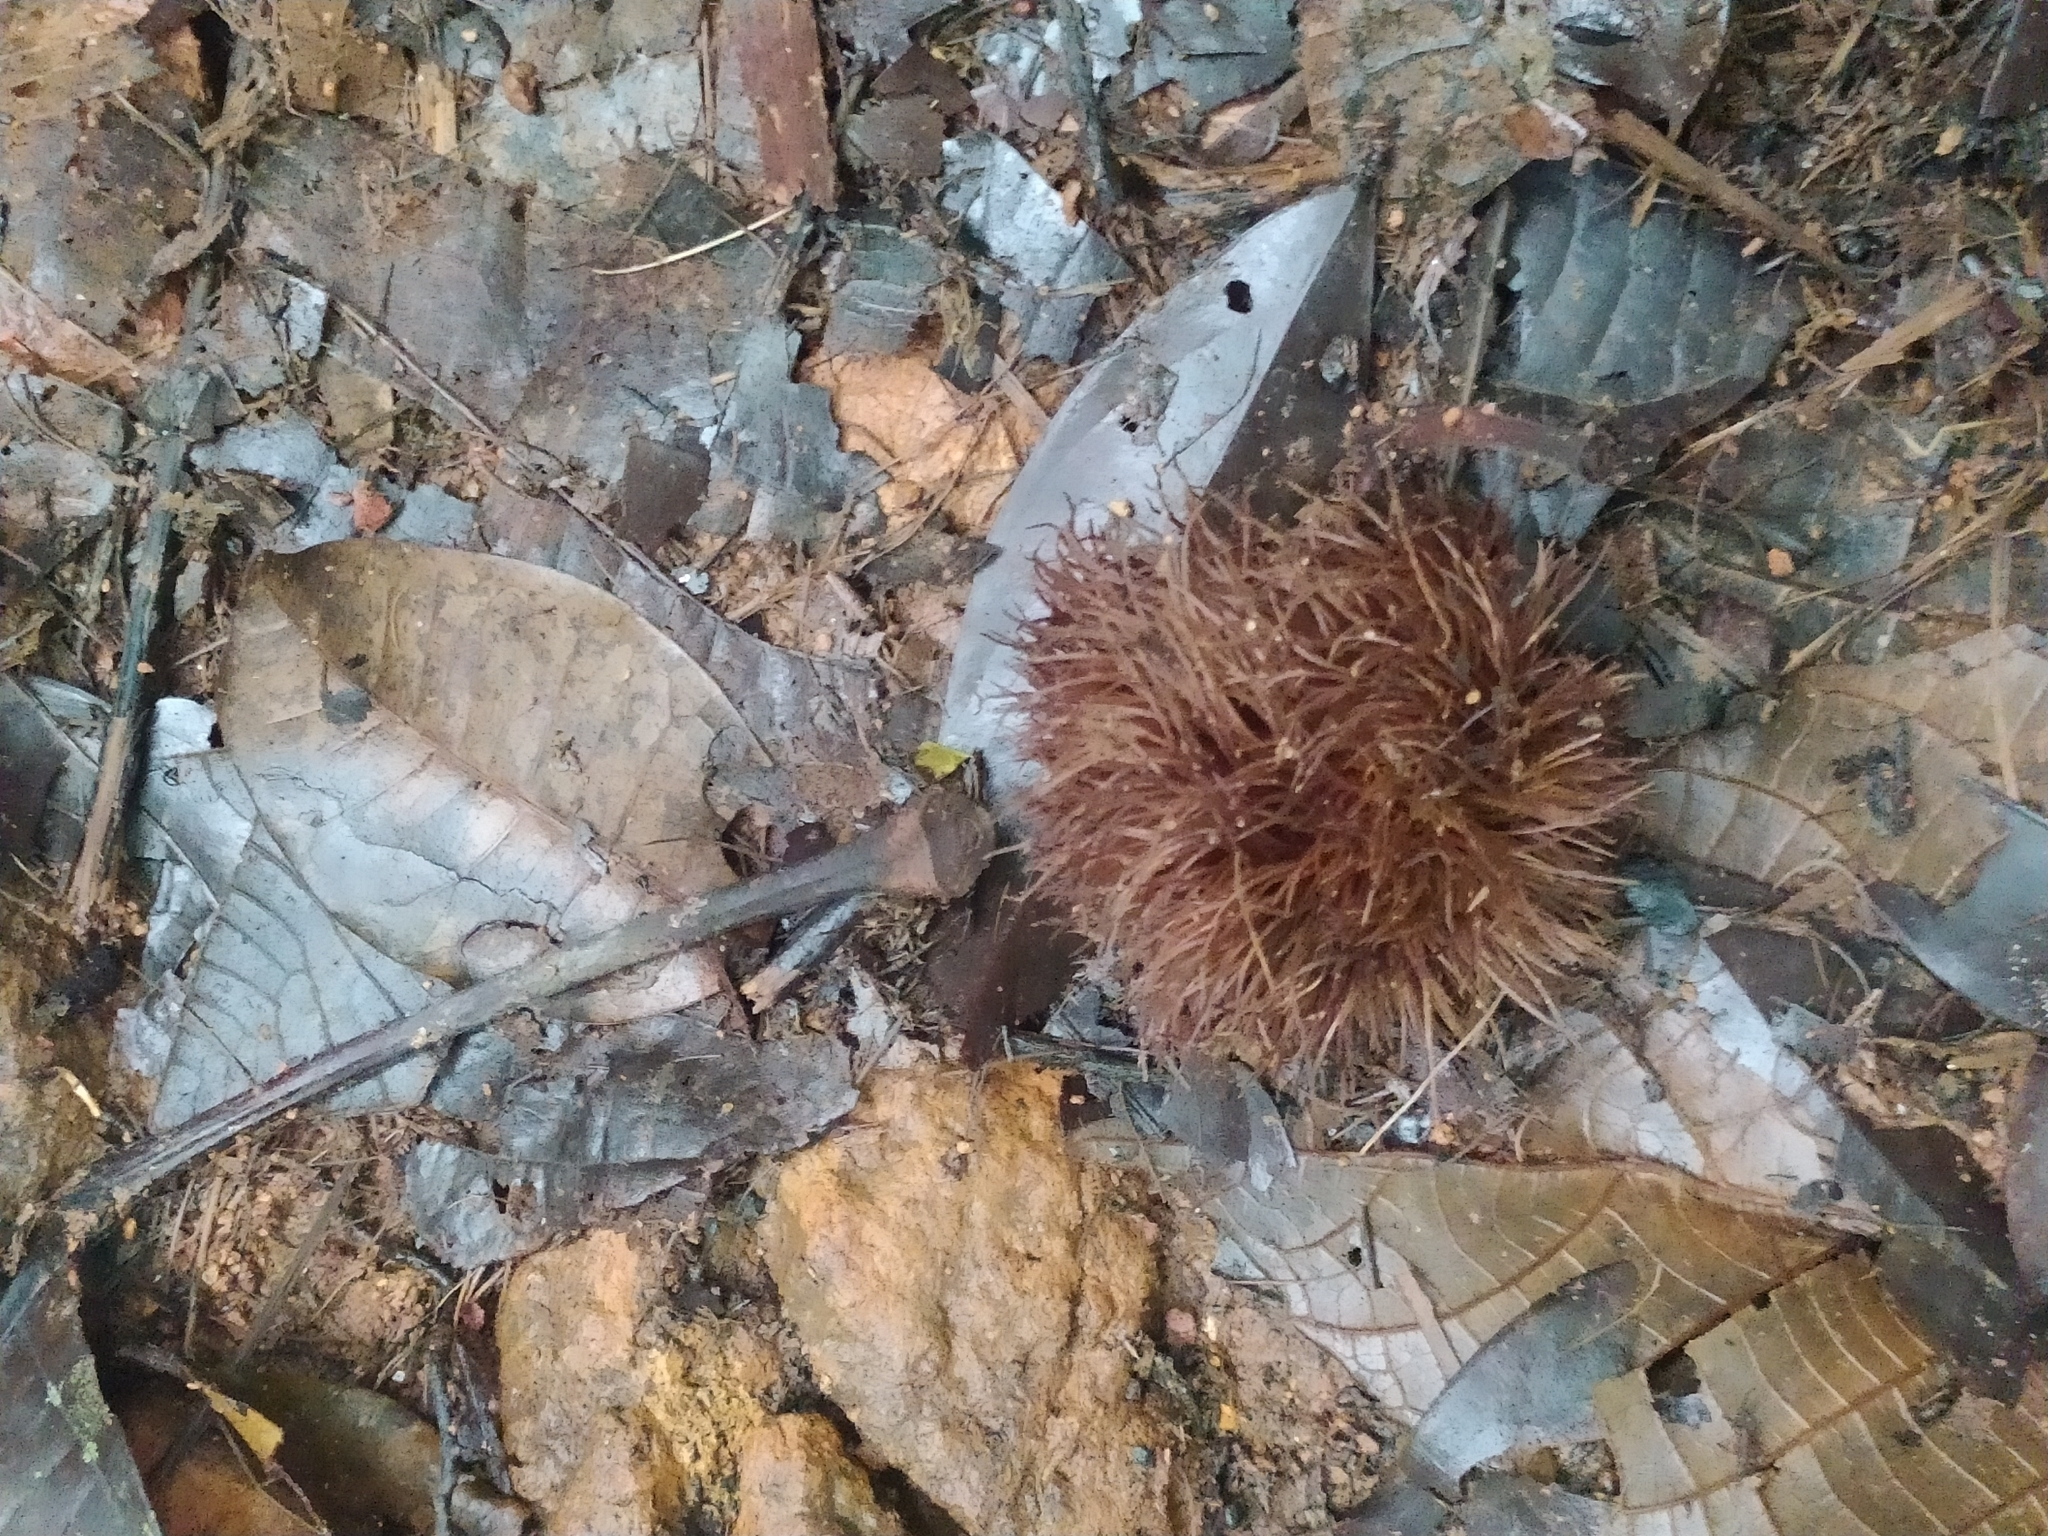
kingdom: Plantae
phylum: Tracheophyta
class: Magnoliopsida
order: Oxalidales
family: Elaeocarpaceae
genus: Sloanea
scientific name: Sloanea grandiflora
